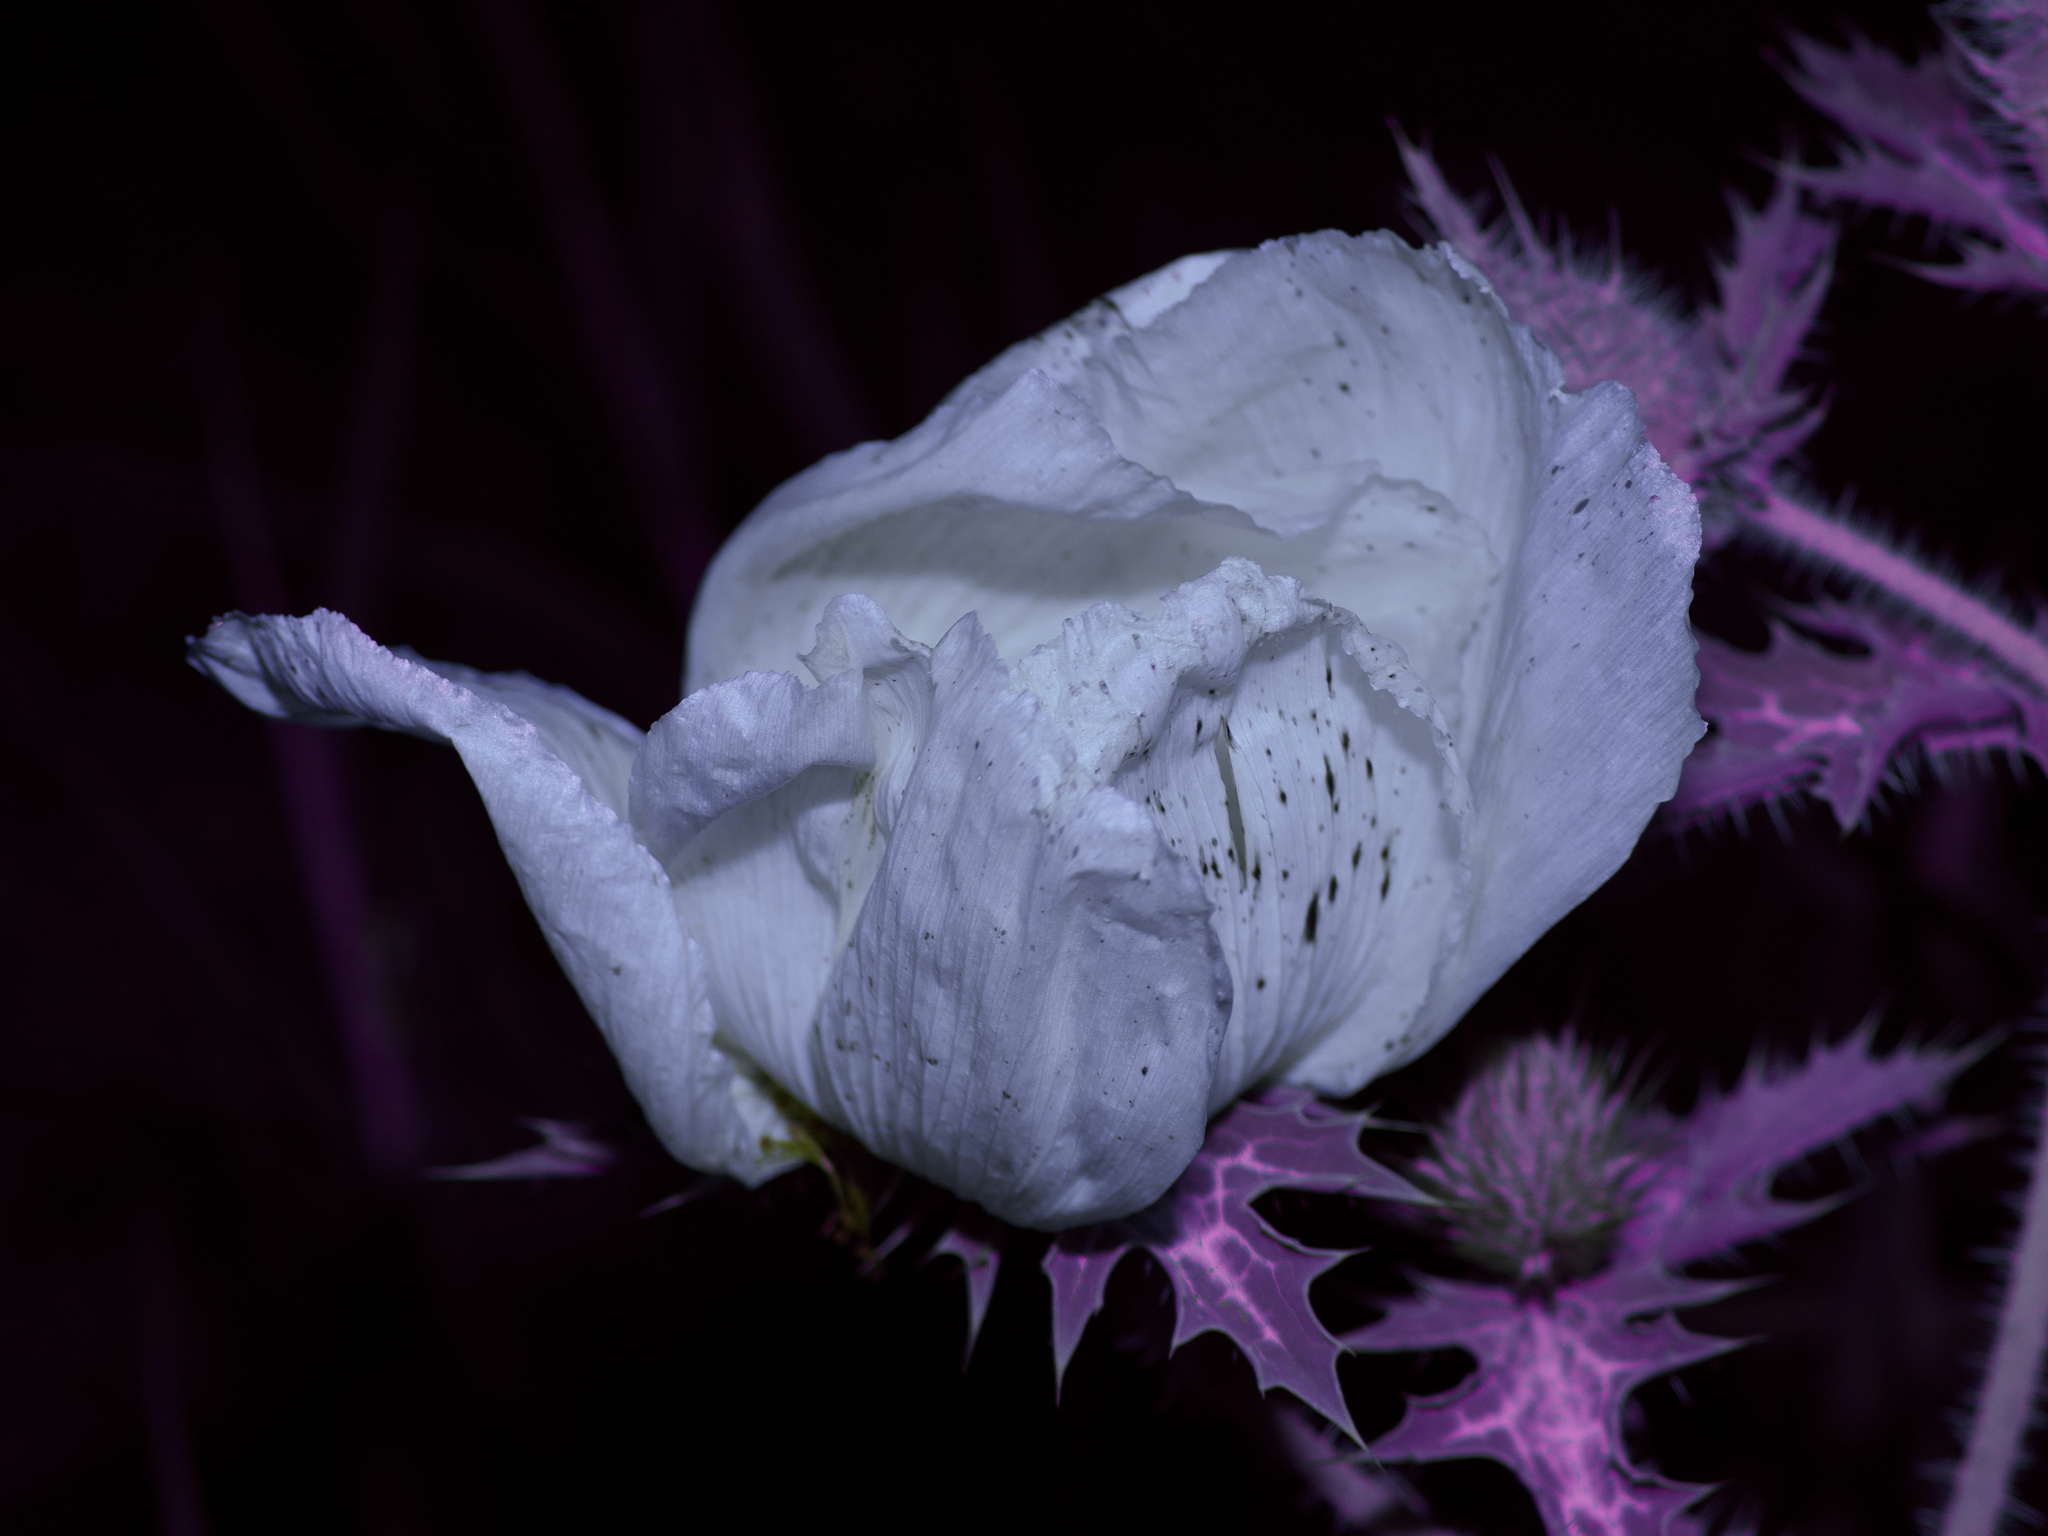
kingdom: Plantae
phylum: Tracheophyta
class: Magnoliopsida
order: Ranunculales
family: Papaveraceae
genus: Argemone
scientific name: Argemone albiflora
